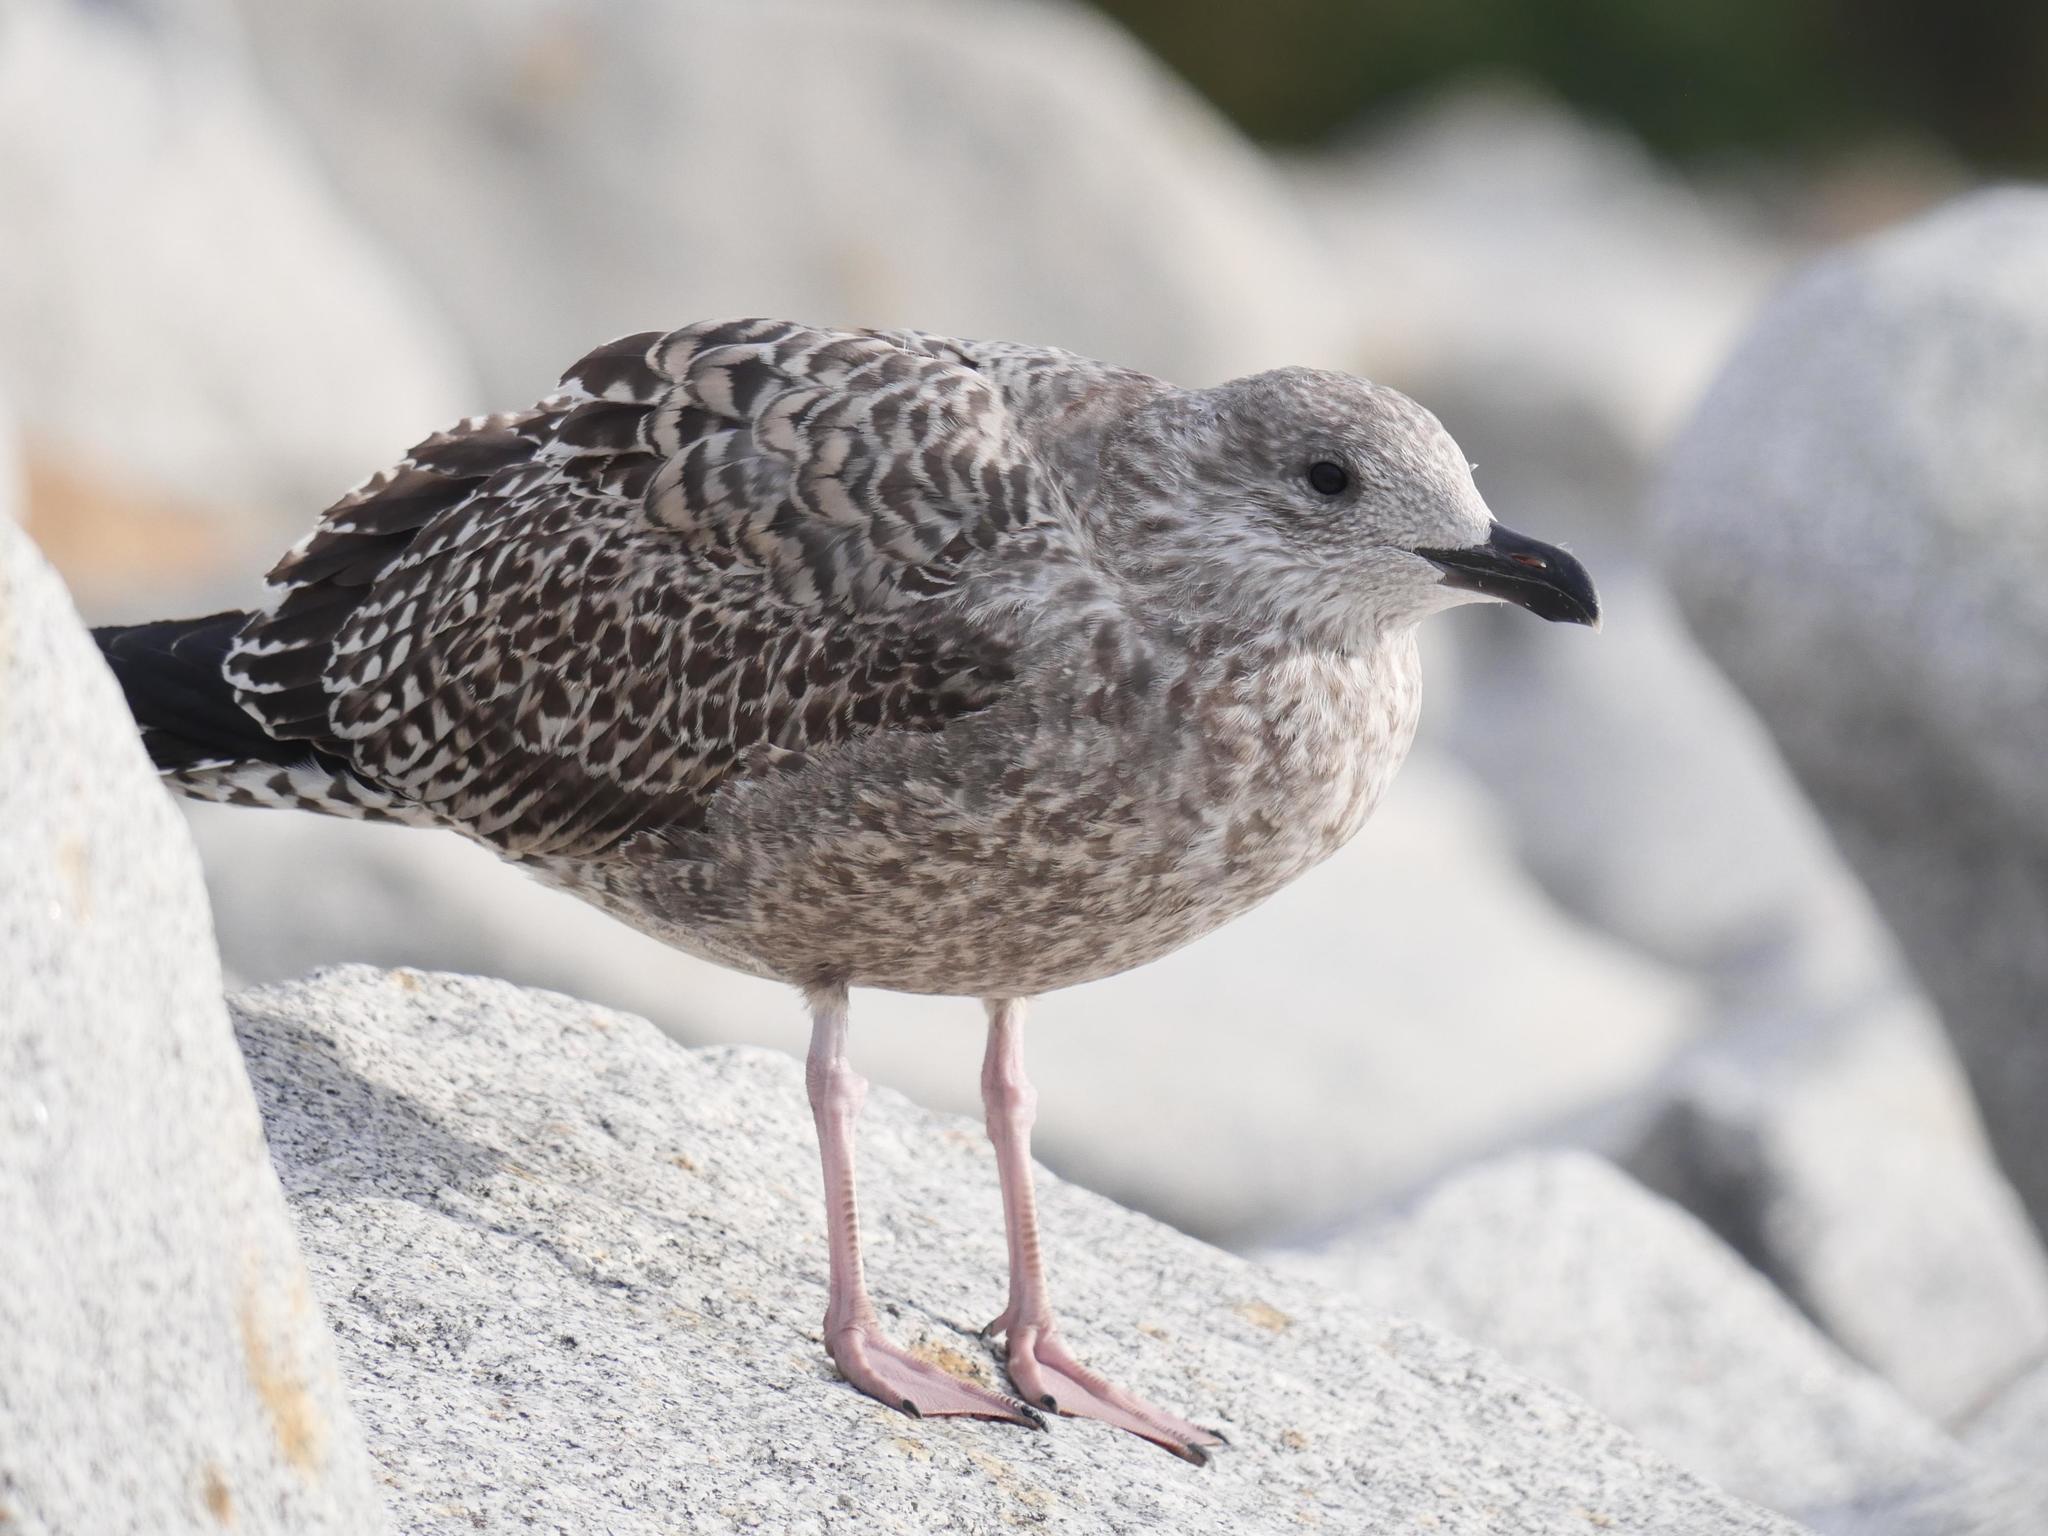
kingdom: Animalia
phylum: Chordata
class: Aves
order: Charadriiformes
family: Laridae
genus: Larus
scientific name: Larus argentatus
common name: Herring gull
